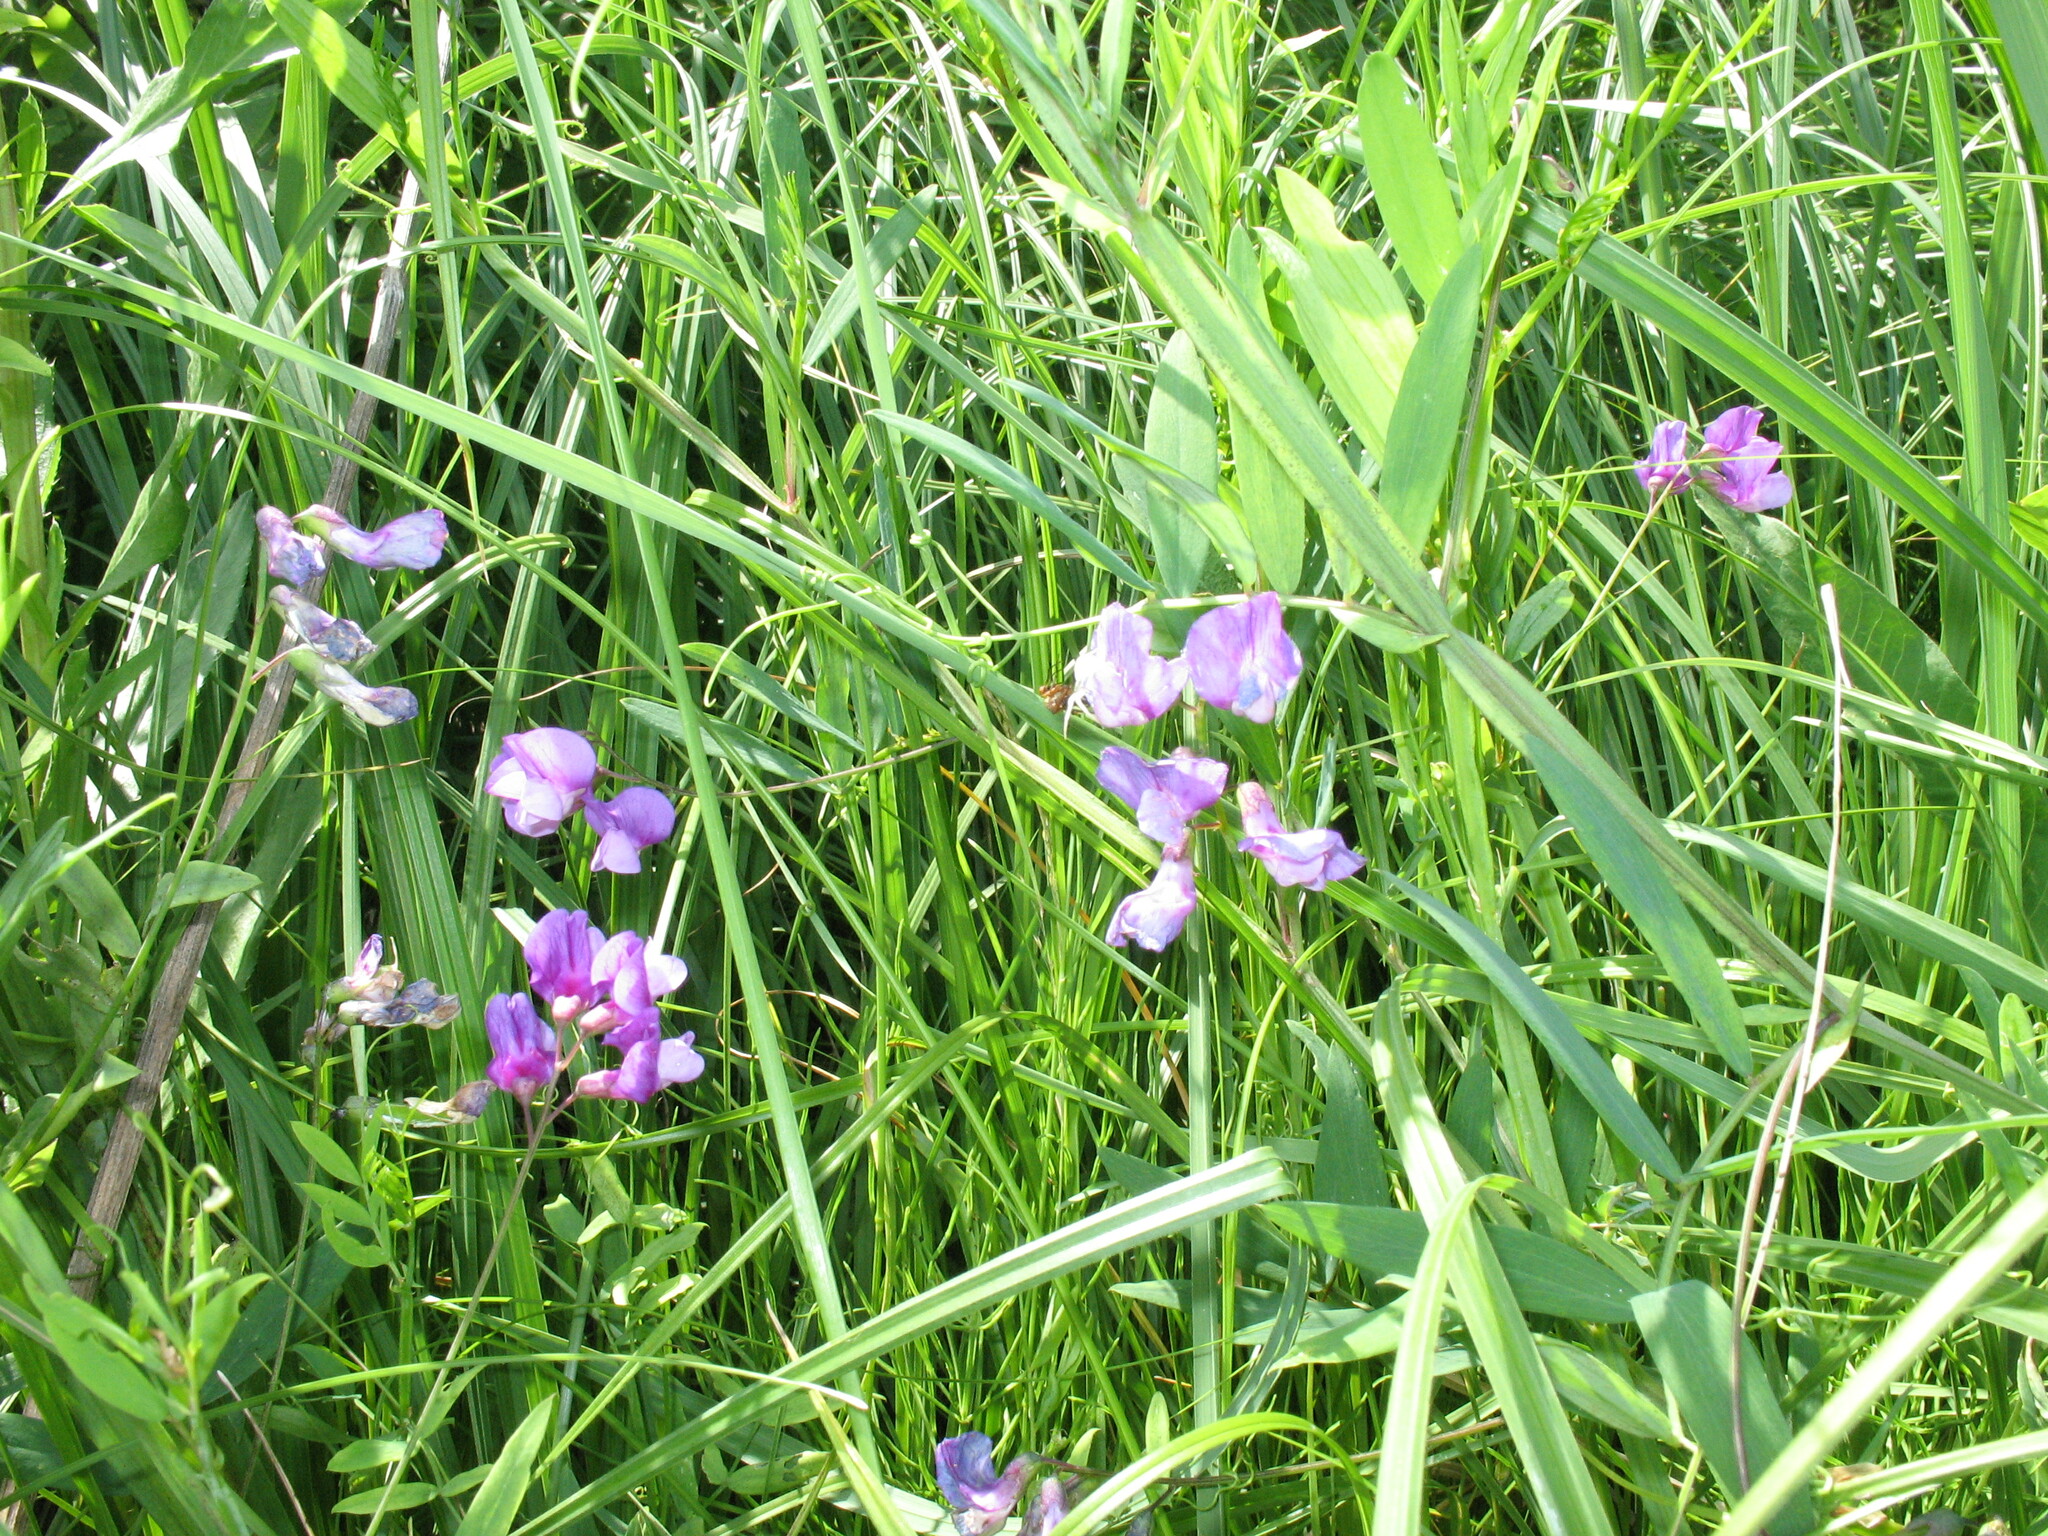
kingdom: Plantae
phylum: Tracheophyta
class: Magnoliopsida
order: Fabales
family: Fabaceae
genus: Lathyrus
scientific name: Lathyrus palustris
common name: Marsh pea
